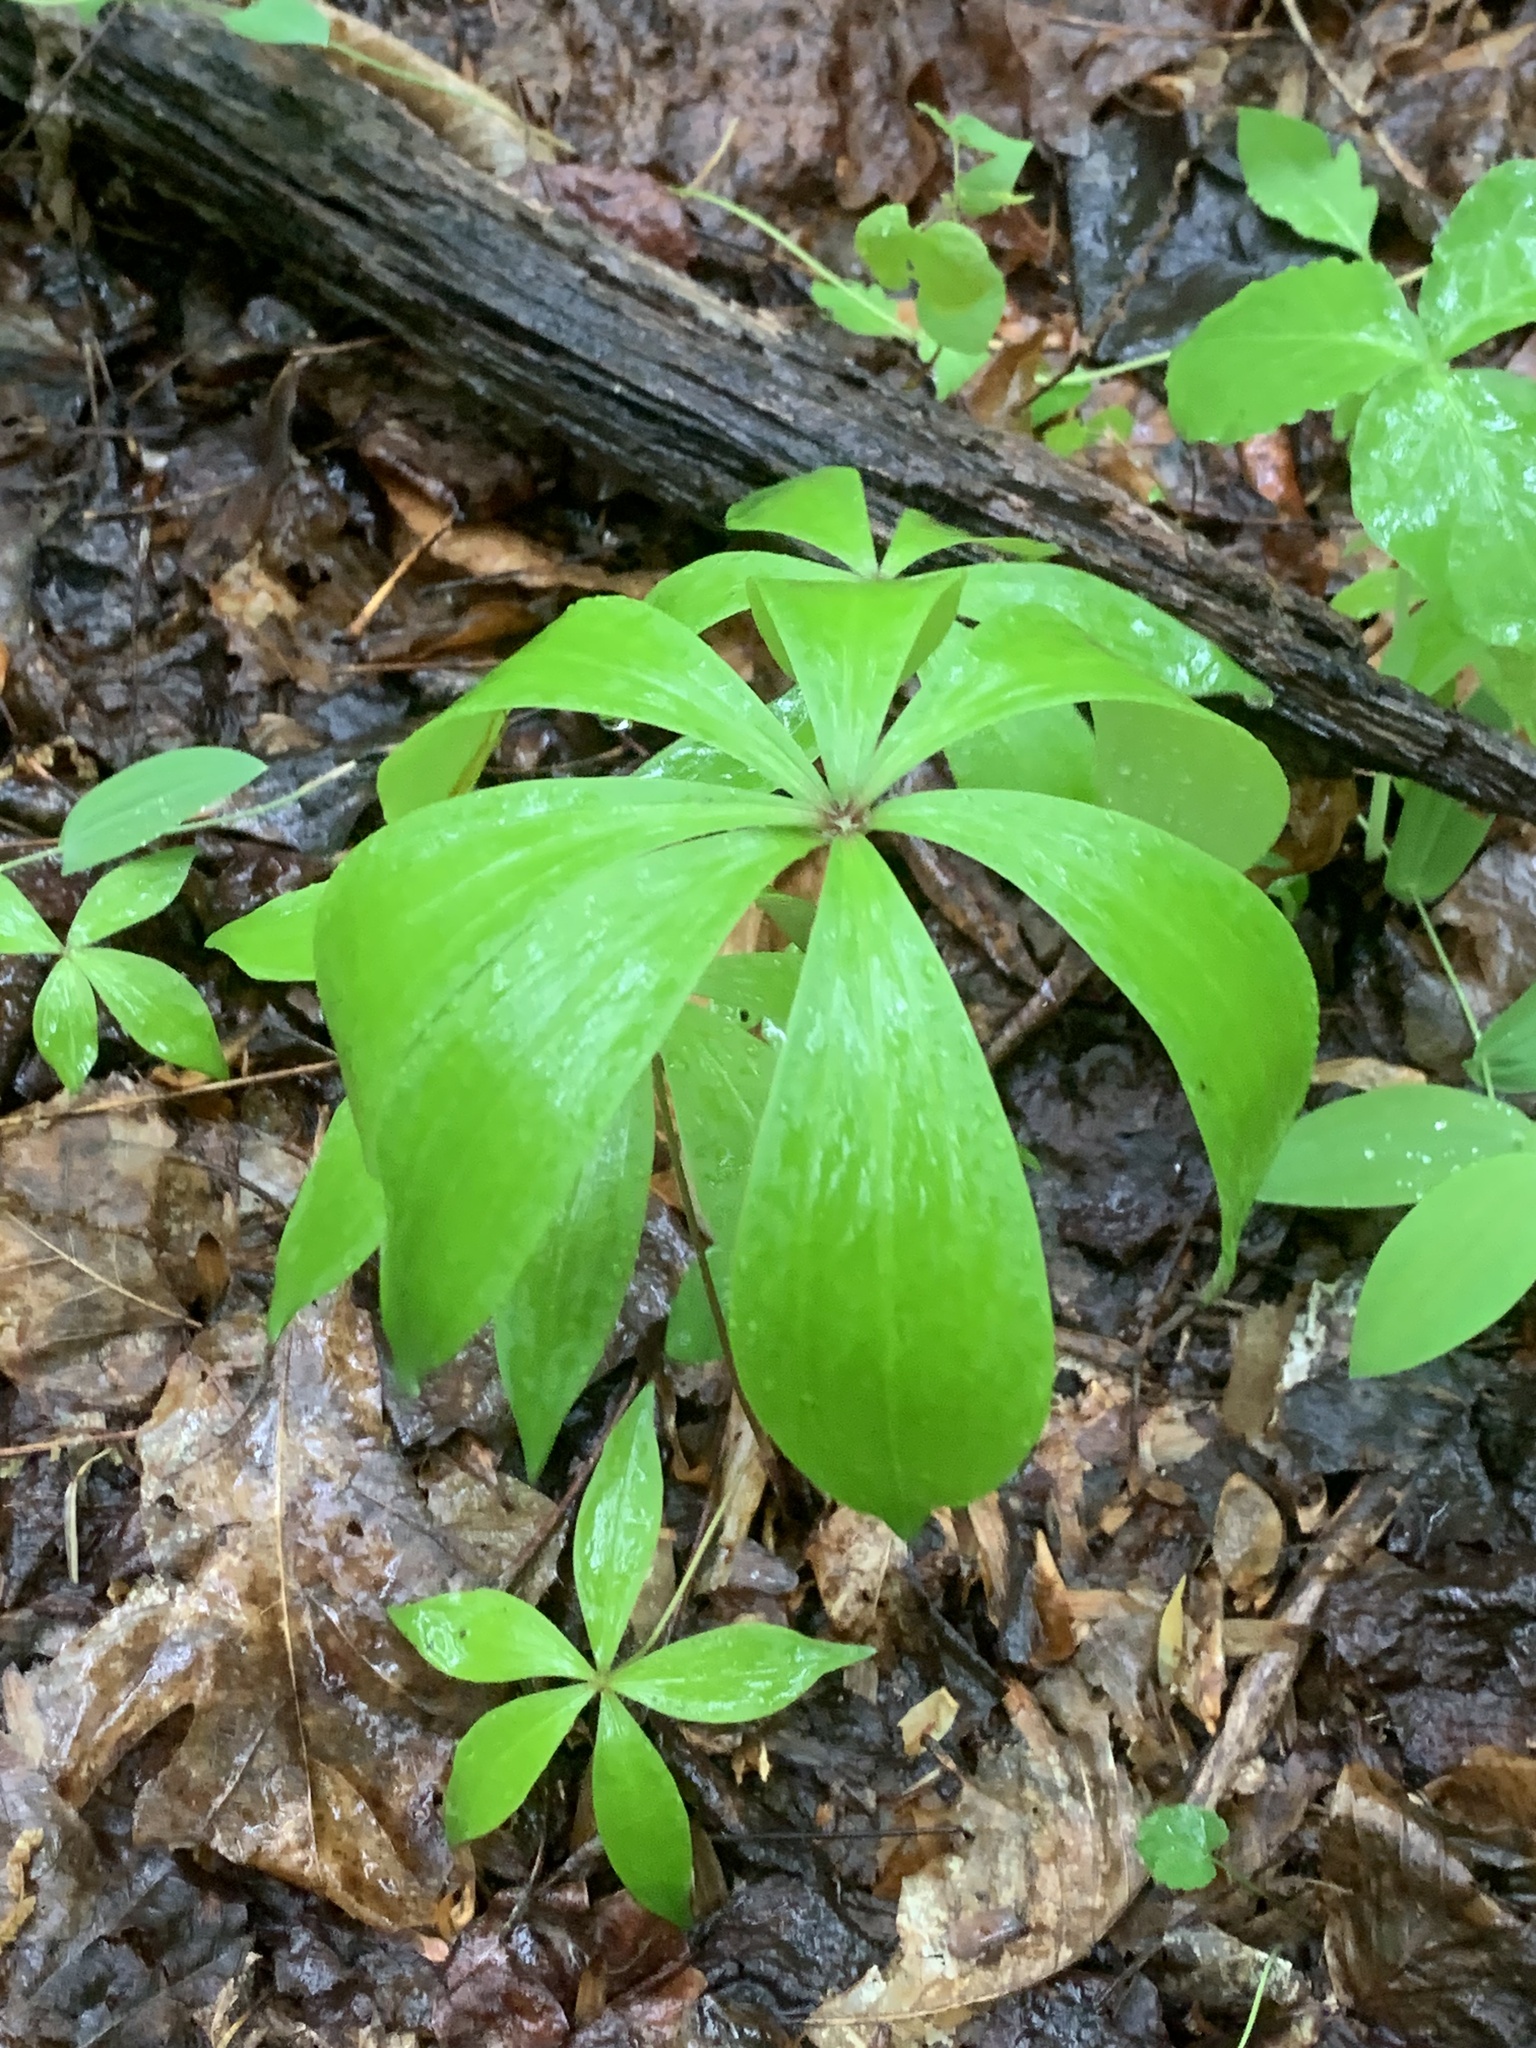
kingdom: Plantae
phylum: Tracheophyta
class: Liliopsida
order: Liliales
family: Liliaceae
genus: Medeola
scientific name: Medeola virginiana
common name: Indian cucumber-root
